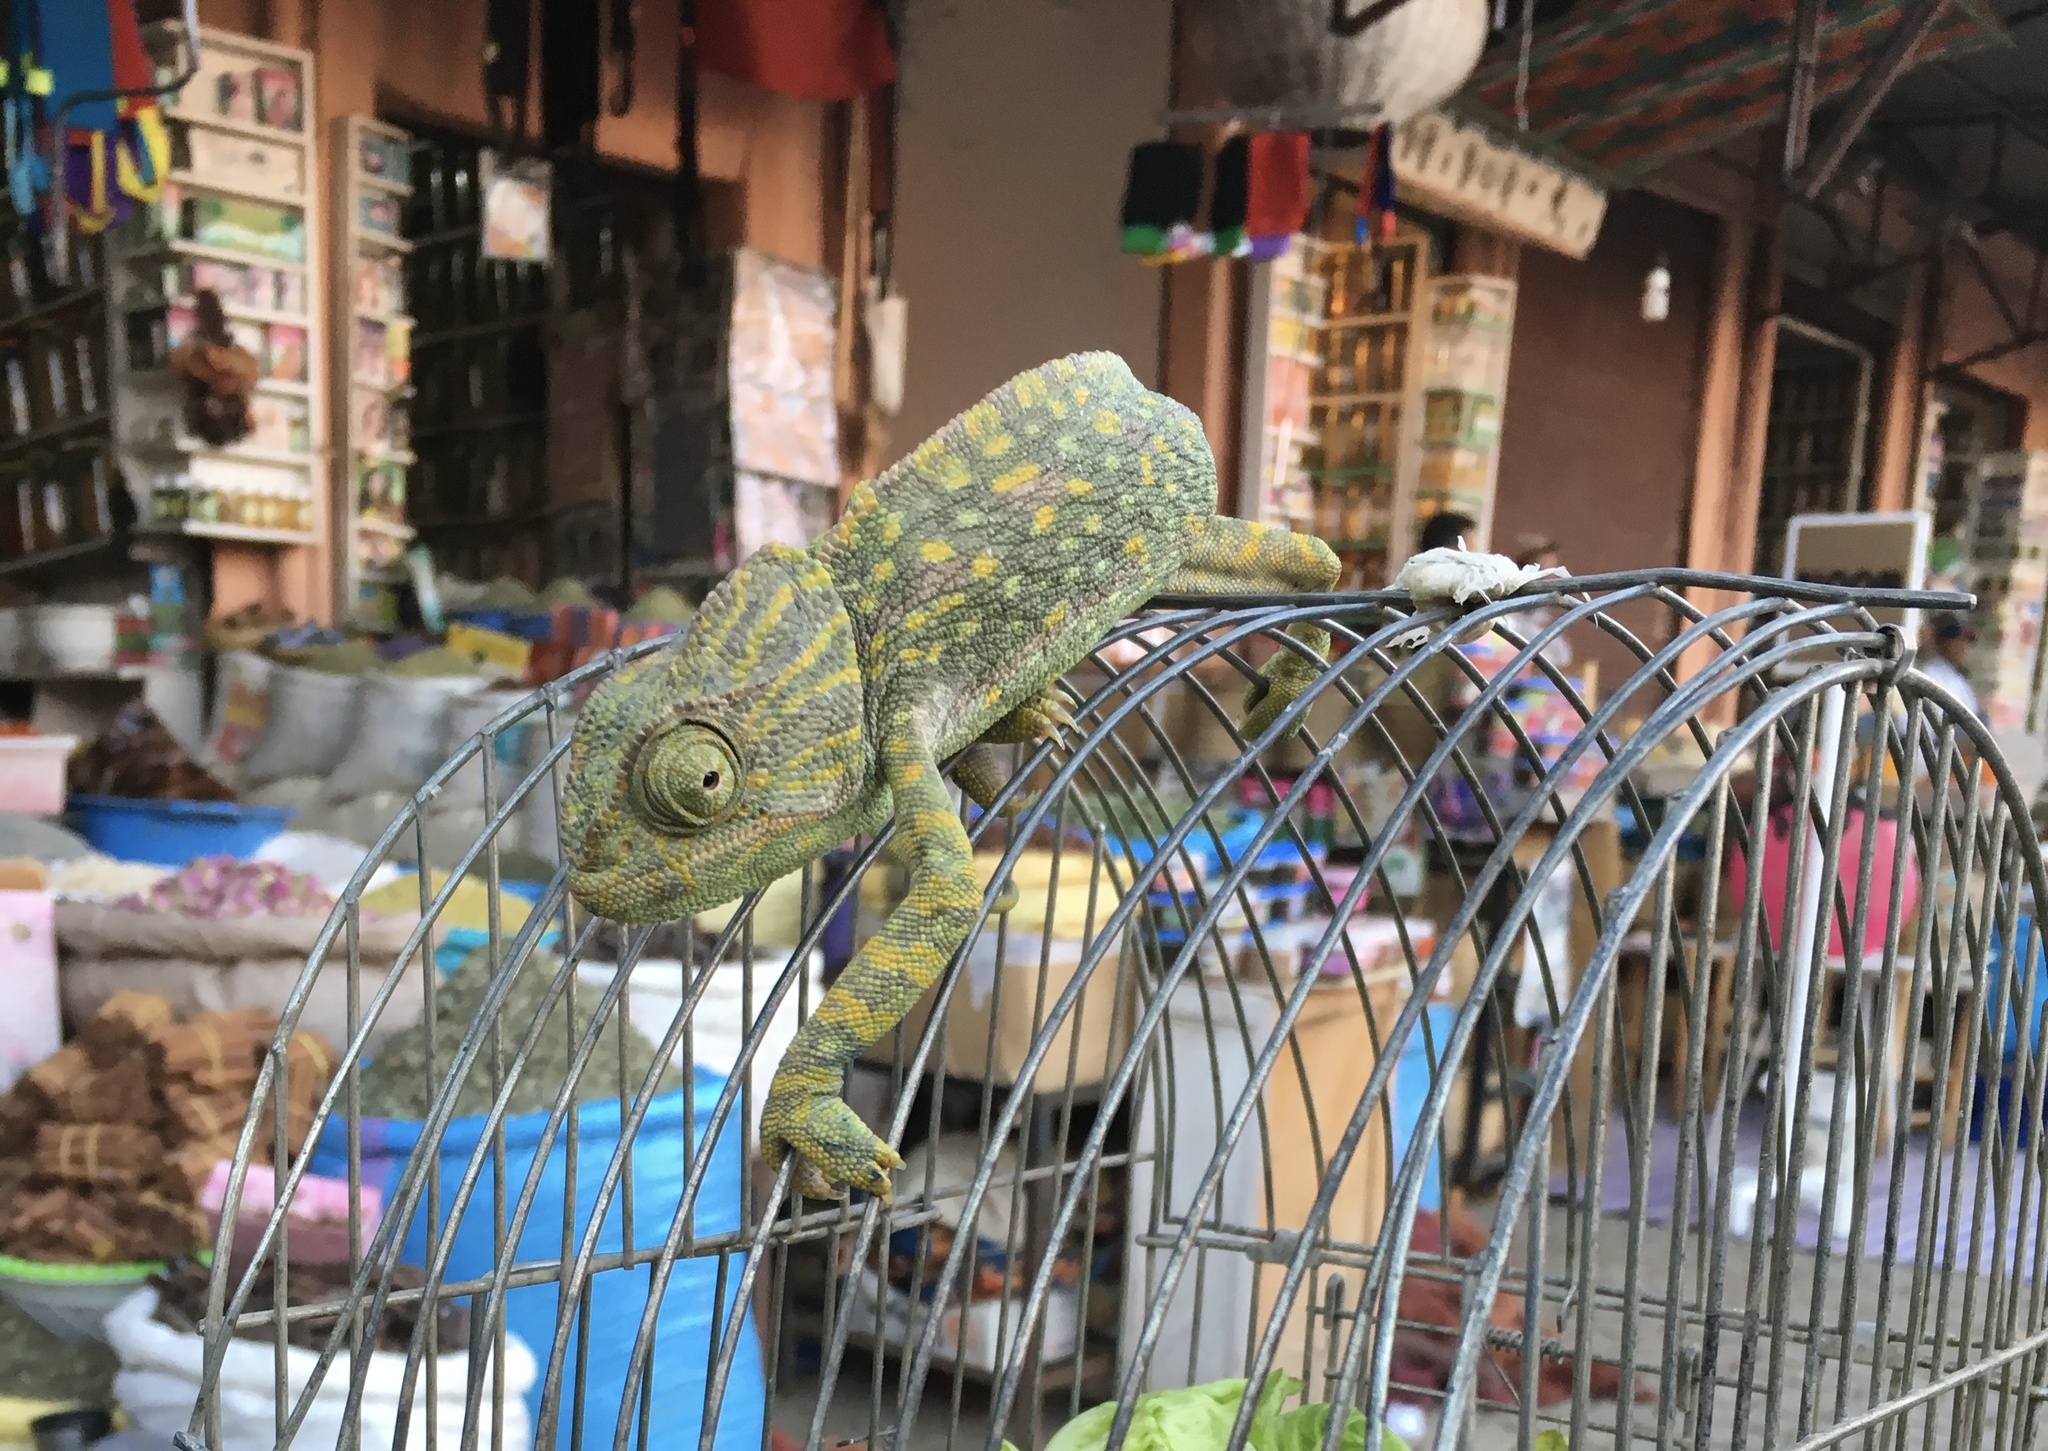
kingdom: Animalia
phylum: Chordata
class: Squamata
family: Chamaeleonidae
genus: Chamaeleo
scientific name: Chamaeleo chamaeleon
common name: Mediterranean chameleon
